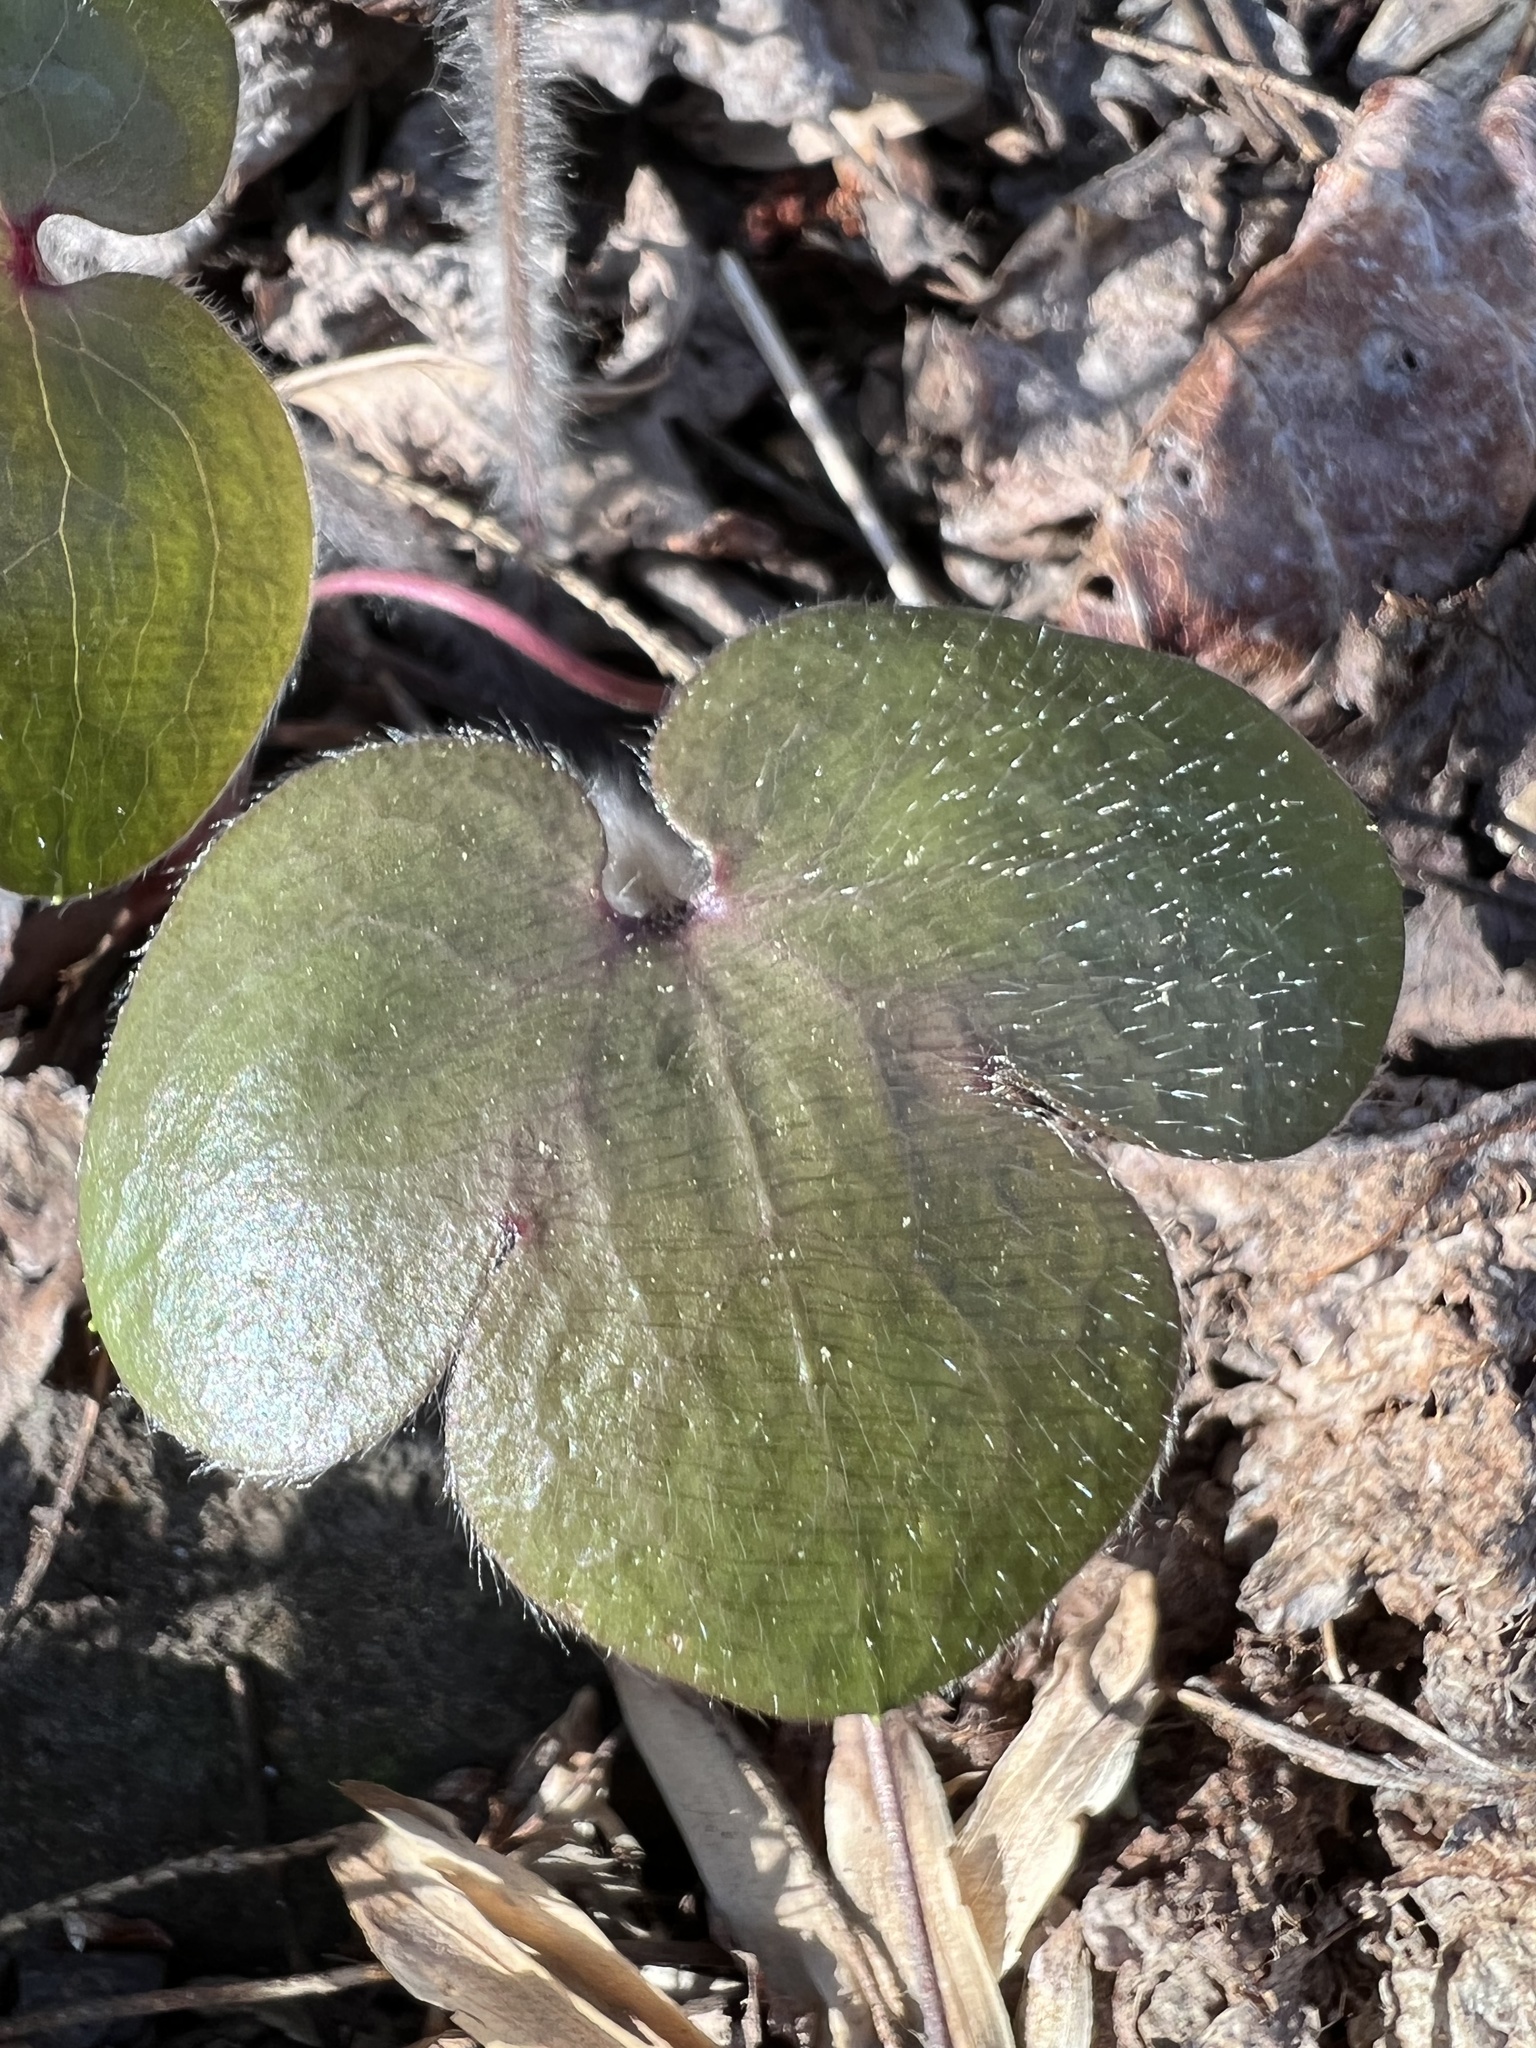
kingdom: Plantae
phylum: Tracheophyta
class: Magnoliopsida
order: Ranunculales
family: Ranunculaceae
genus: Hepatica
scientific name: Hepatica americana
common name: American hepatica
